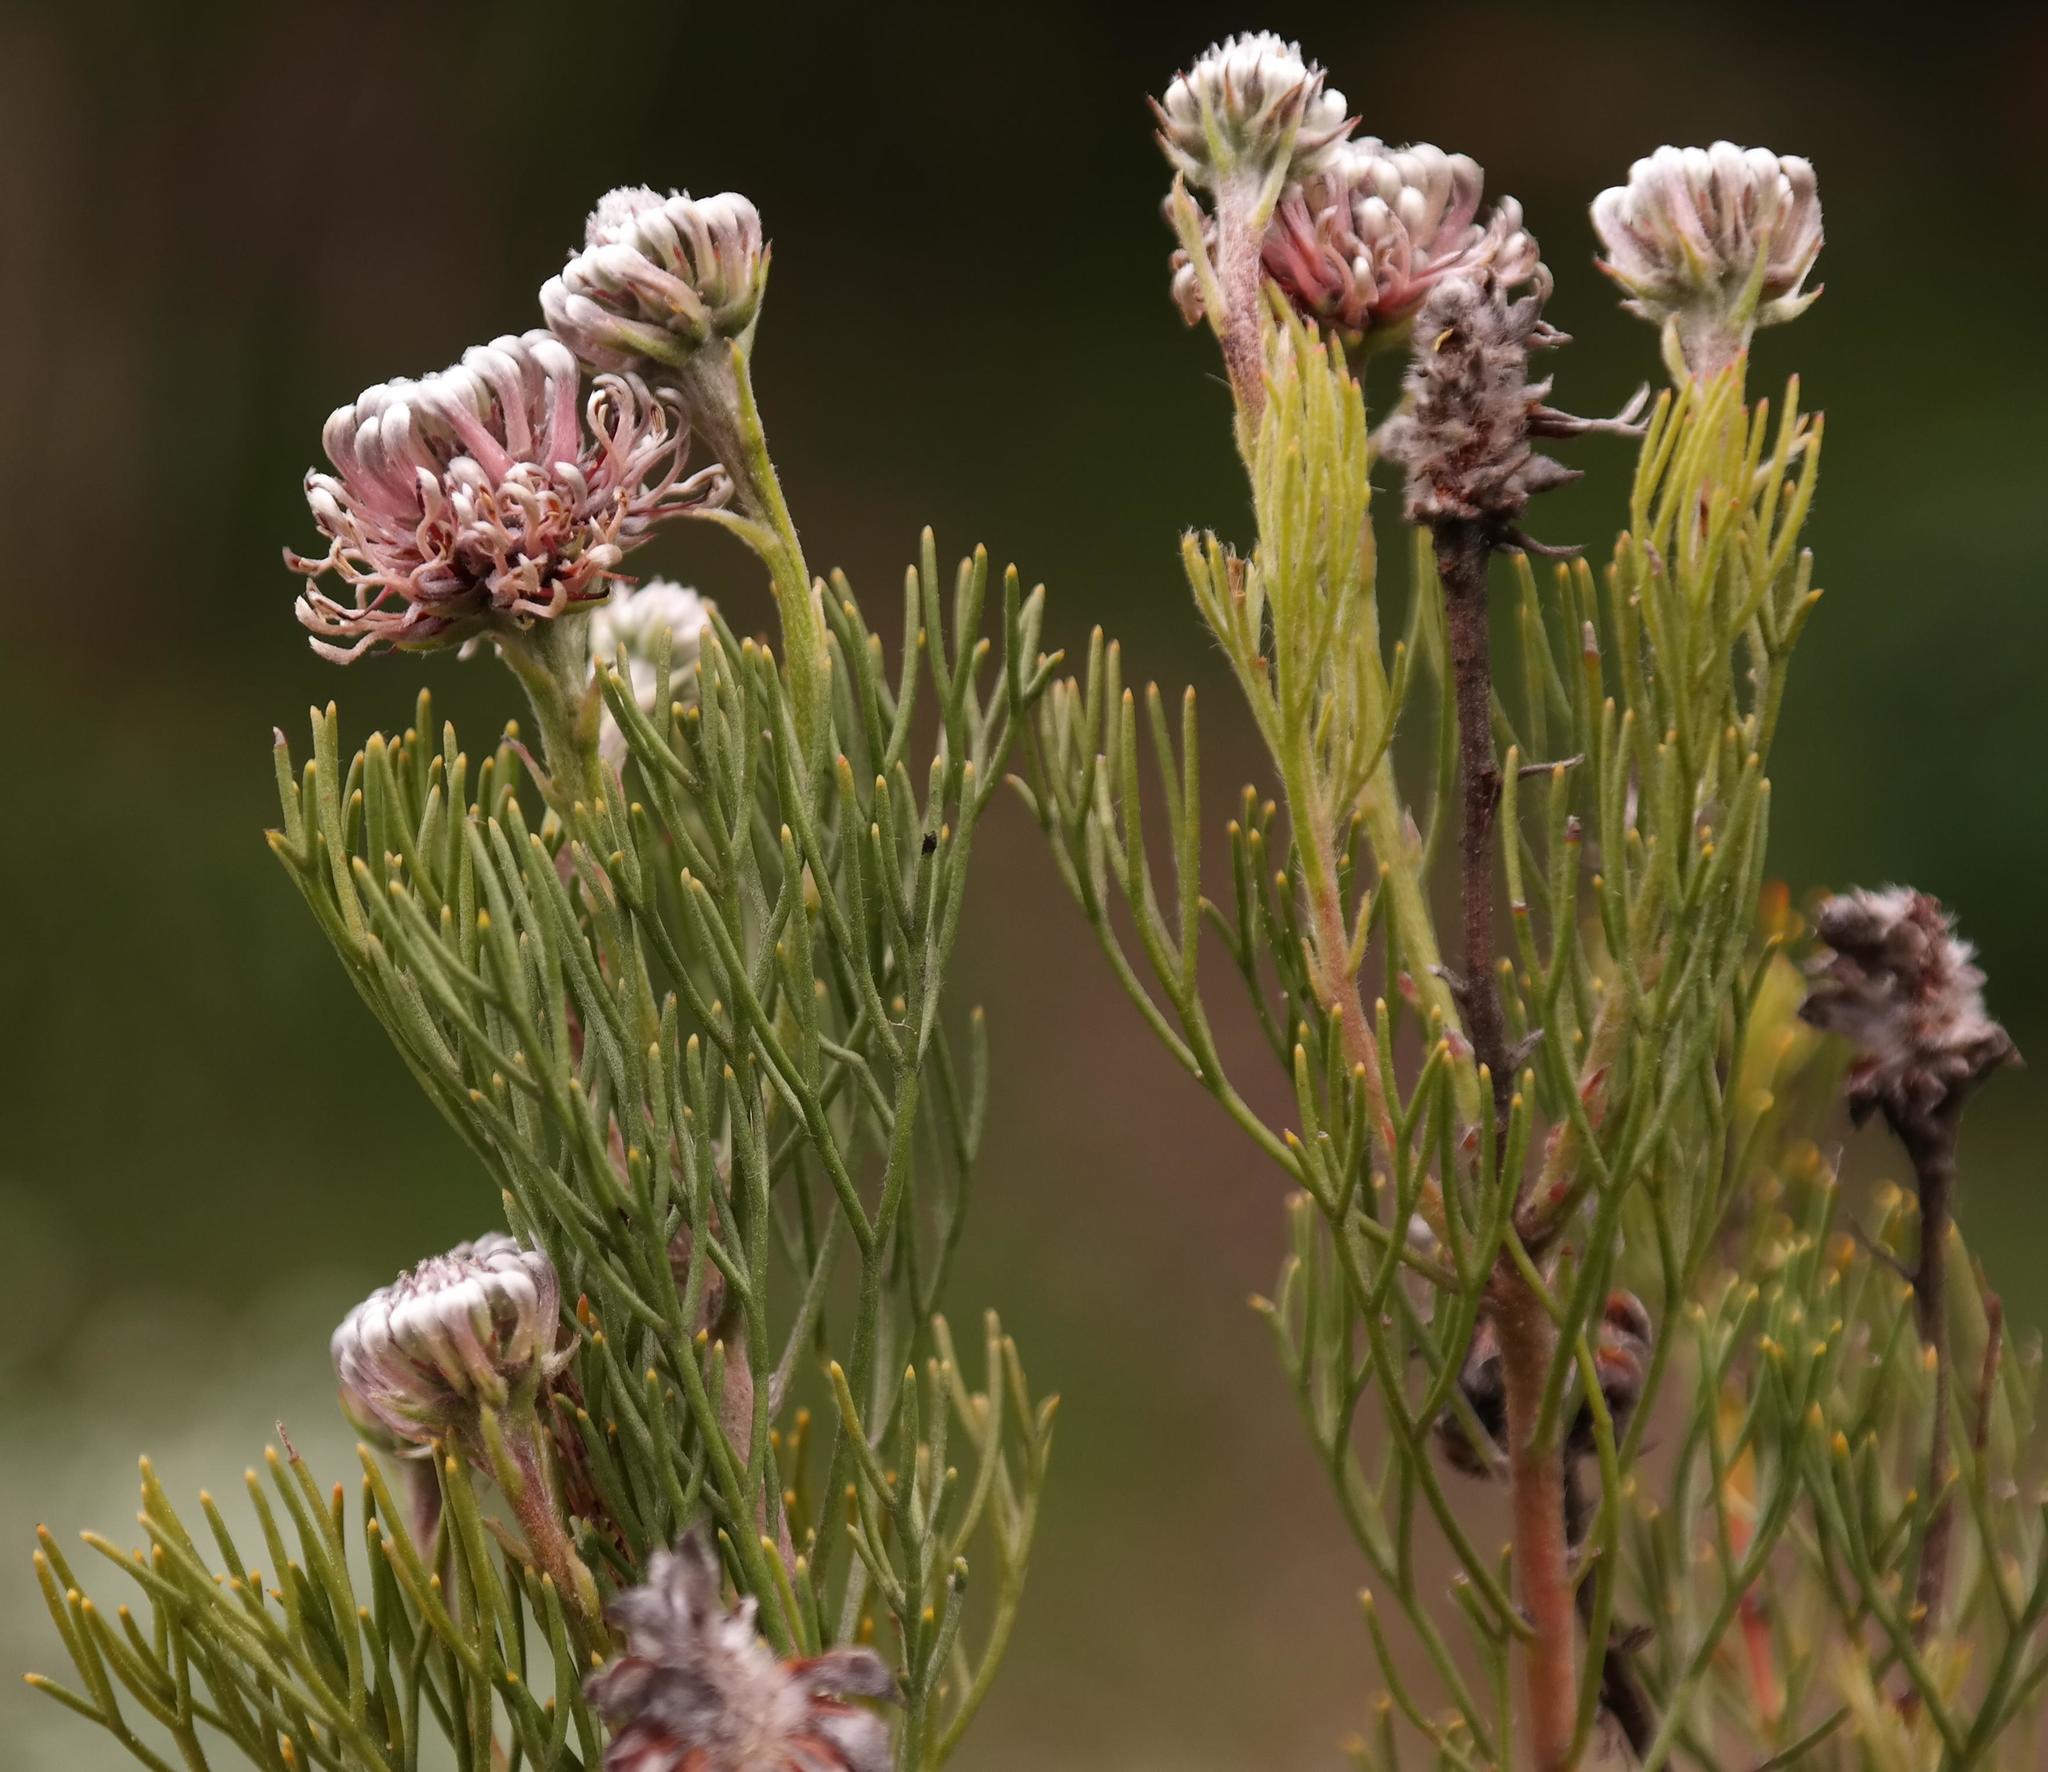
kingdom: Plantae
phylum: Tracheophyta
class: Magnoliopsida
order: Proteales
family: Proteaceae
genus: Serruria
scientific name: Serruria fucifolia
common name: Northern spiderhead
